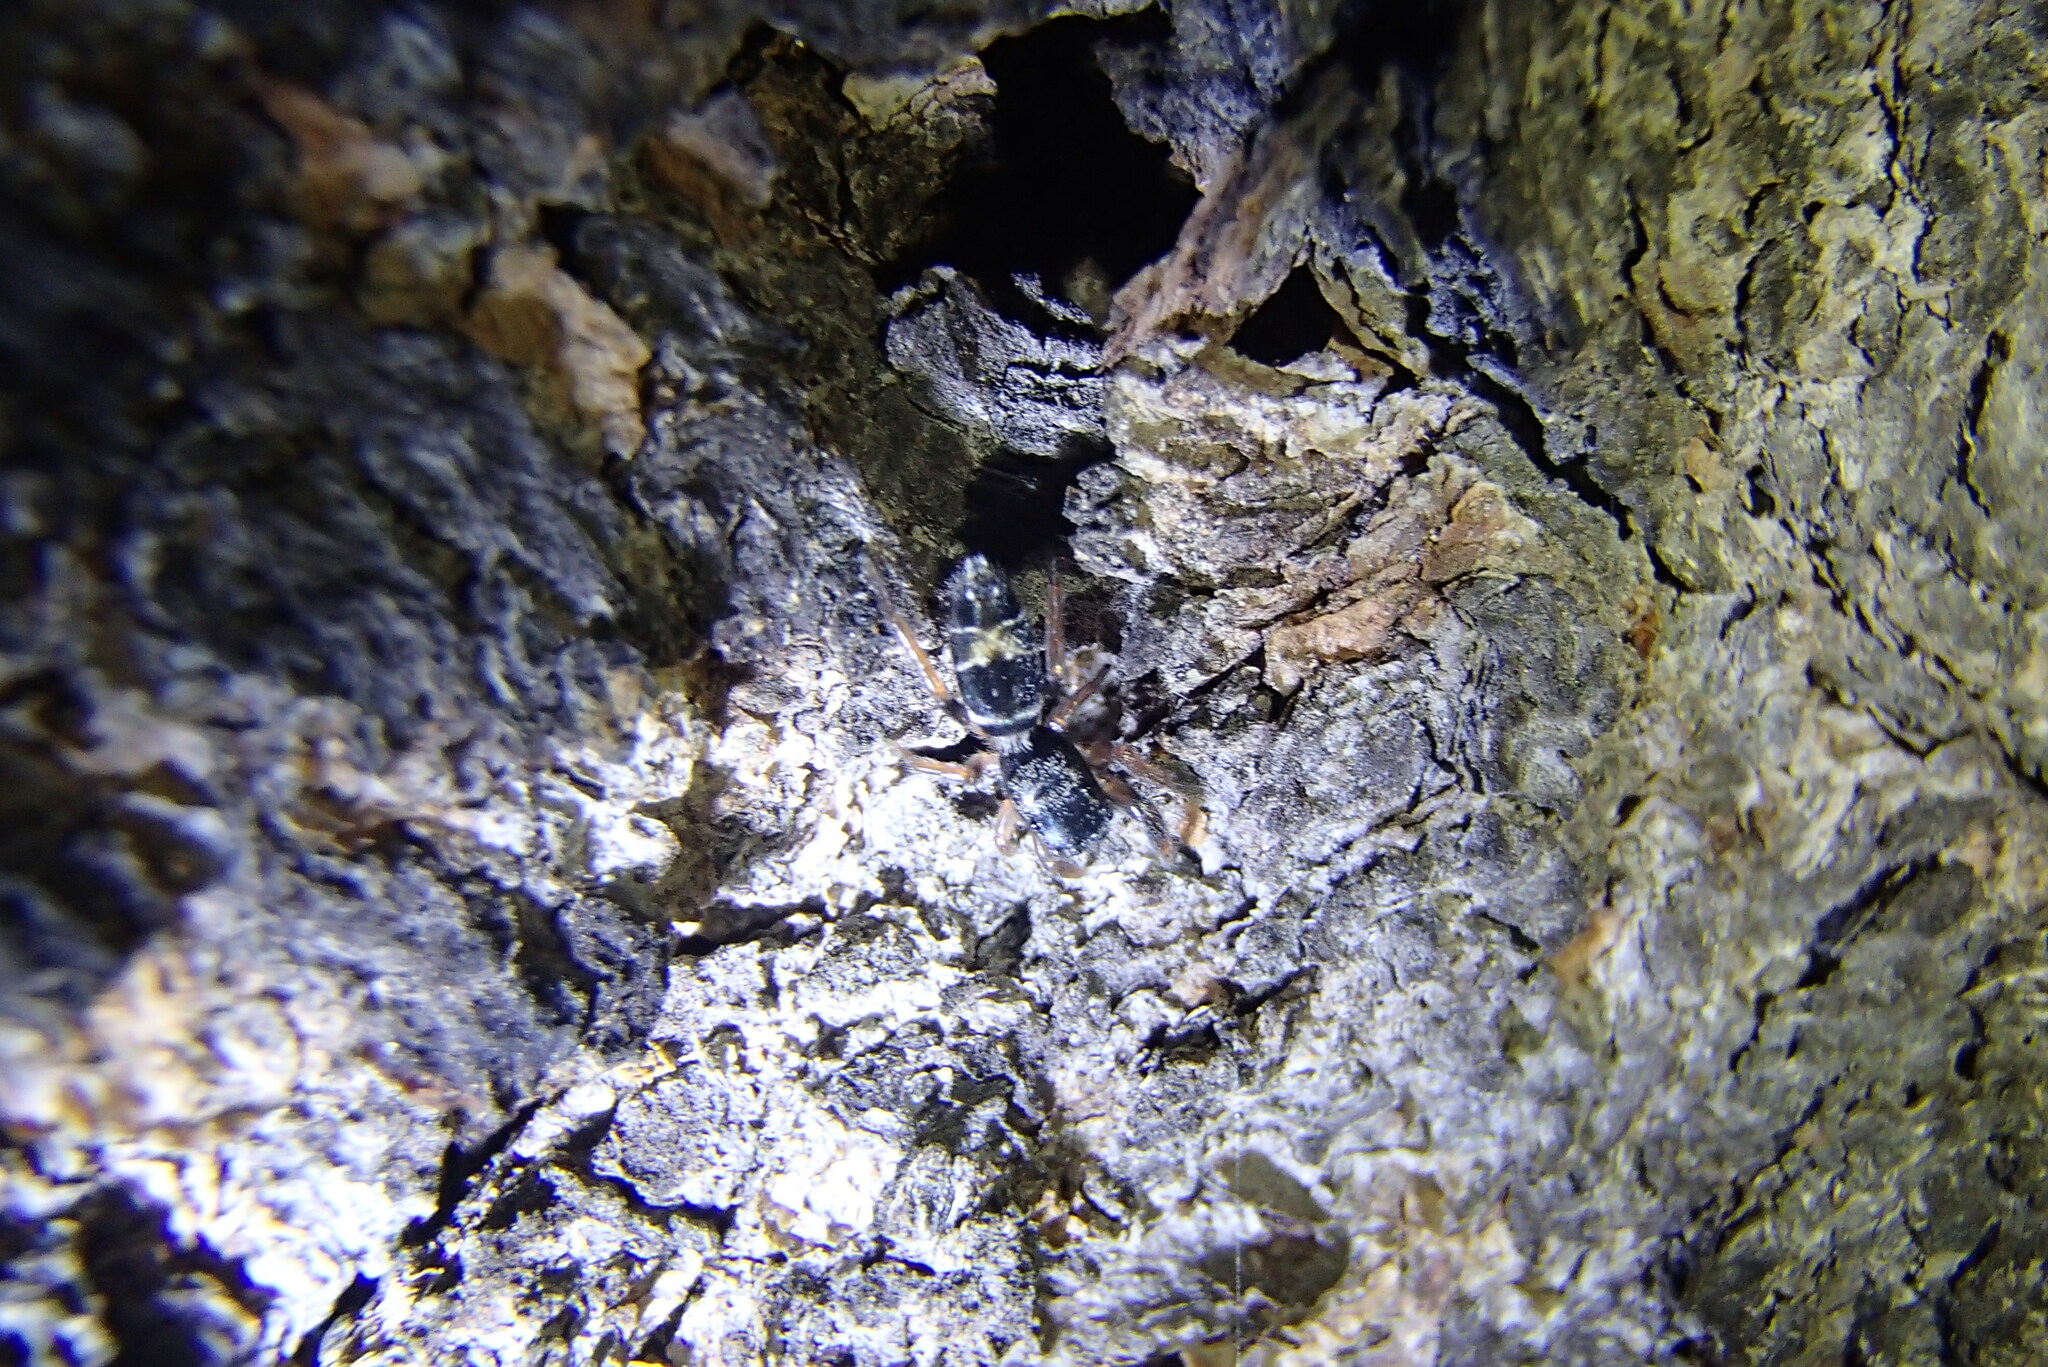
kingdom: Animalia
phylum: Arthropoda
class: Arachnida
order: Araneae
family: Salticidae
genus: Apricia
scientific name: Apricia jovialis
